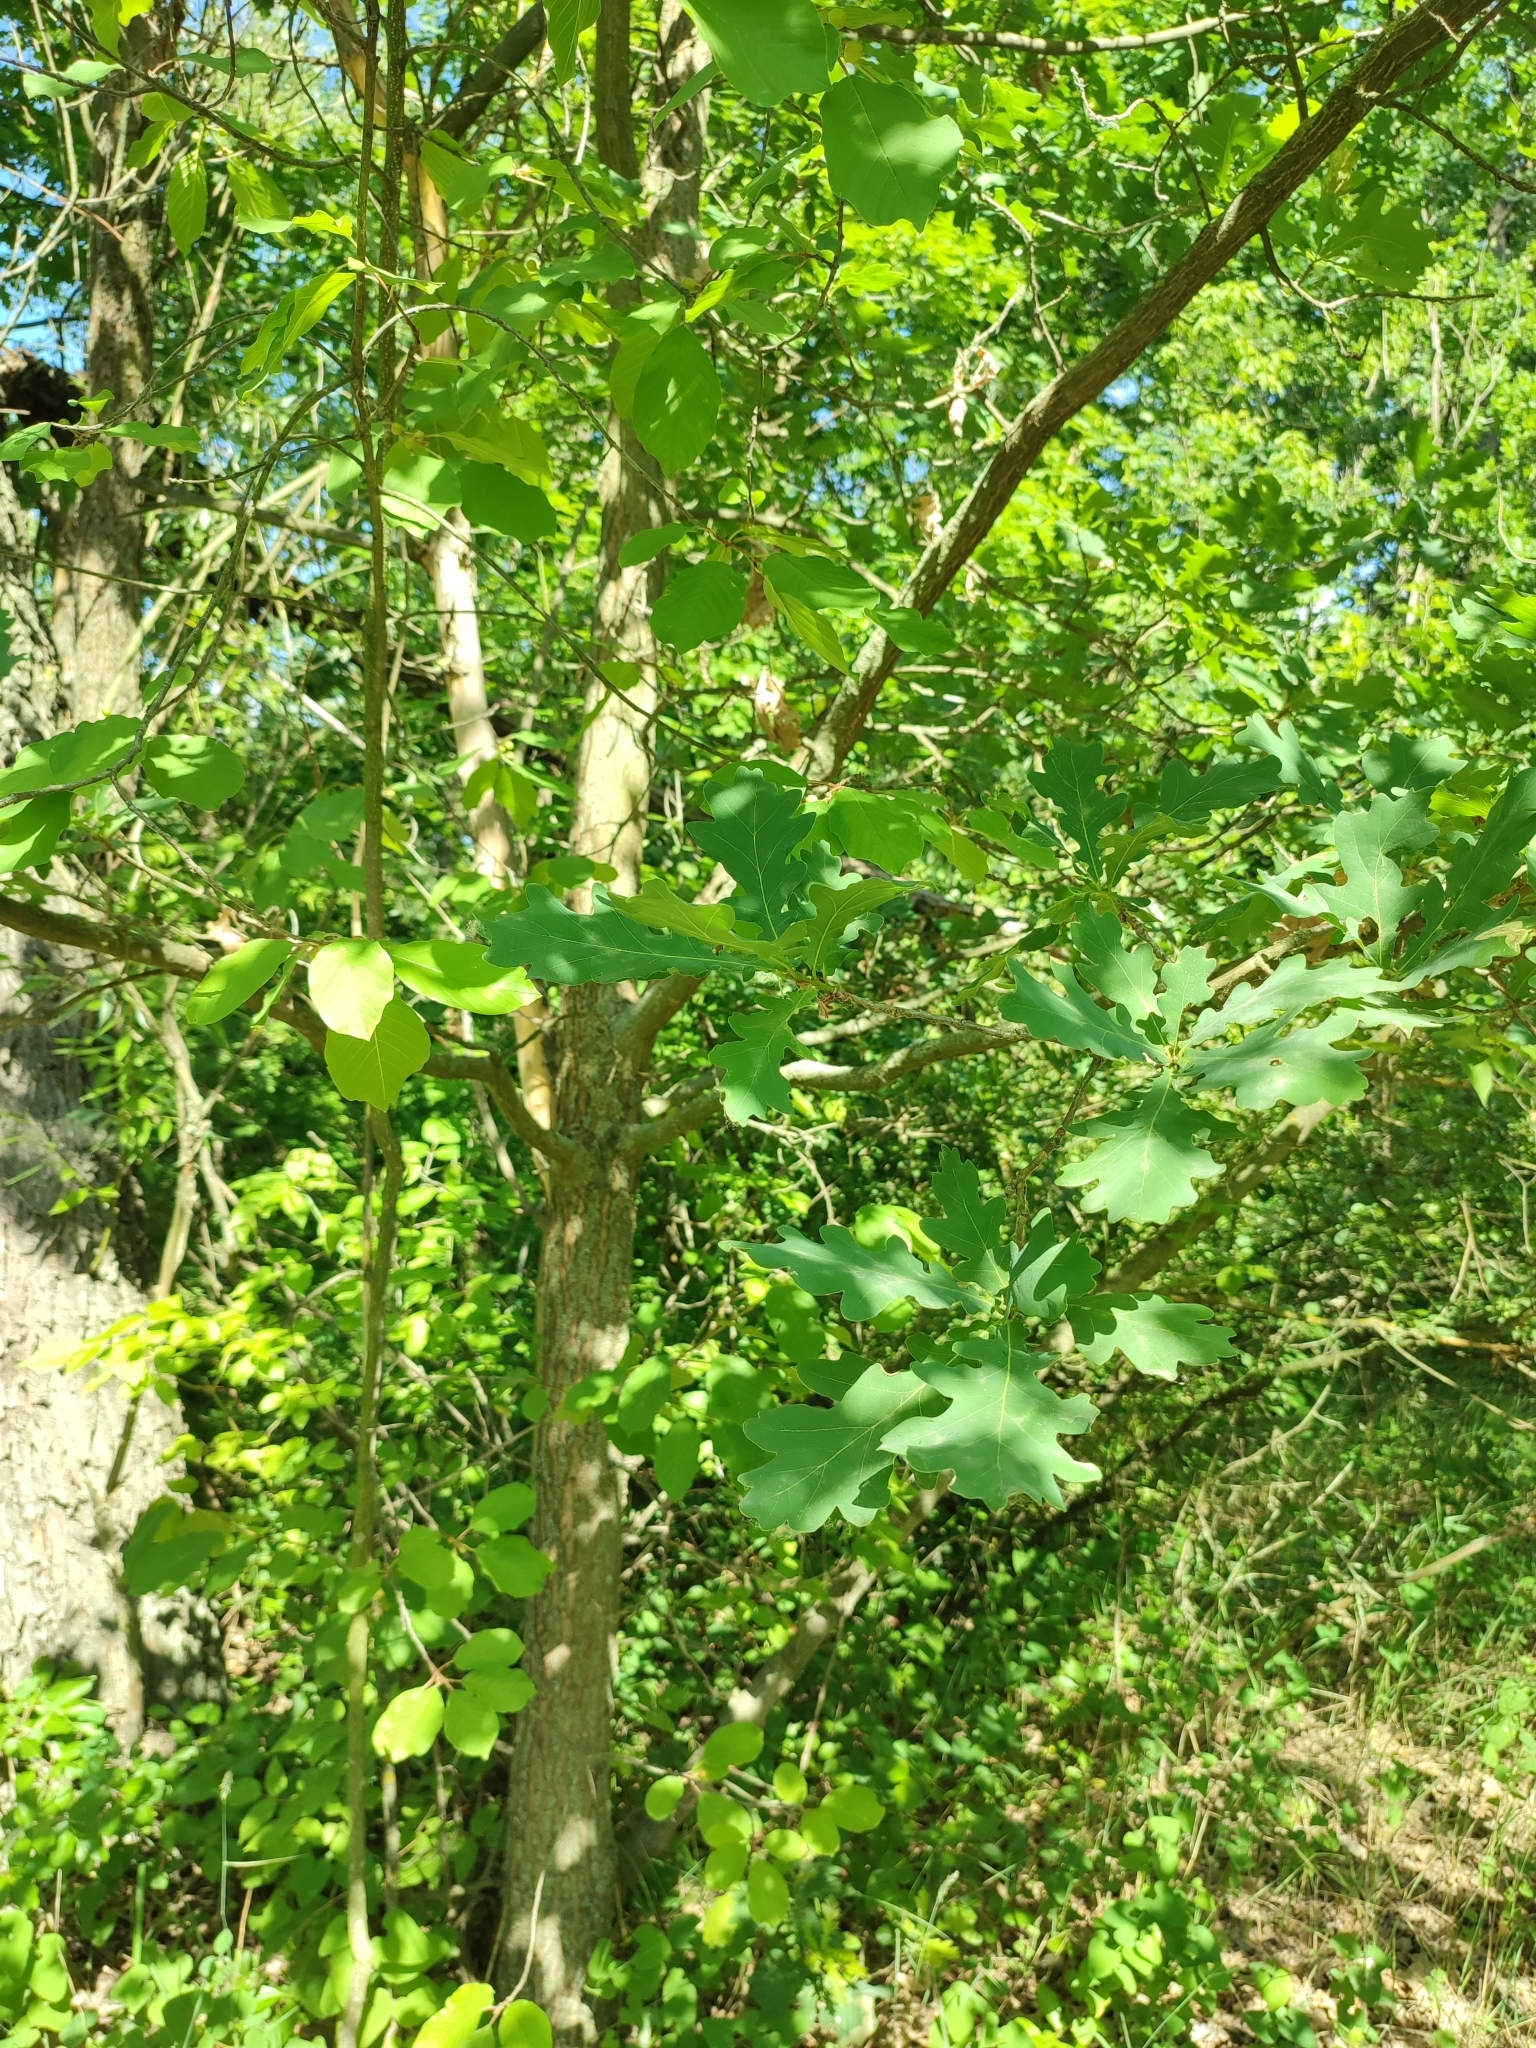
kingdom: Plantae
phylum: Tracheophyta
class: Magnoliopsida
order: Fagales
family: Fagaceae
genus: Quercus
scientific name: Quercus robur
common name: Pedunculate oak
